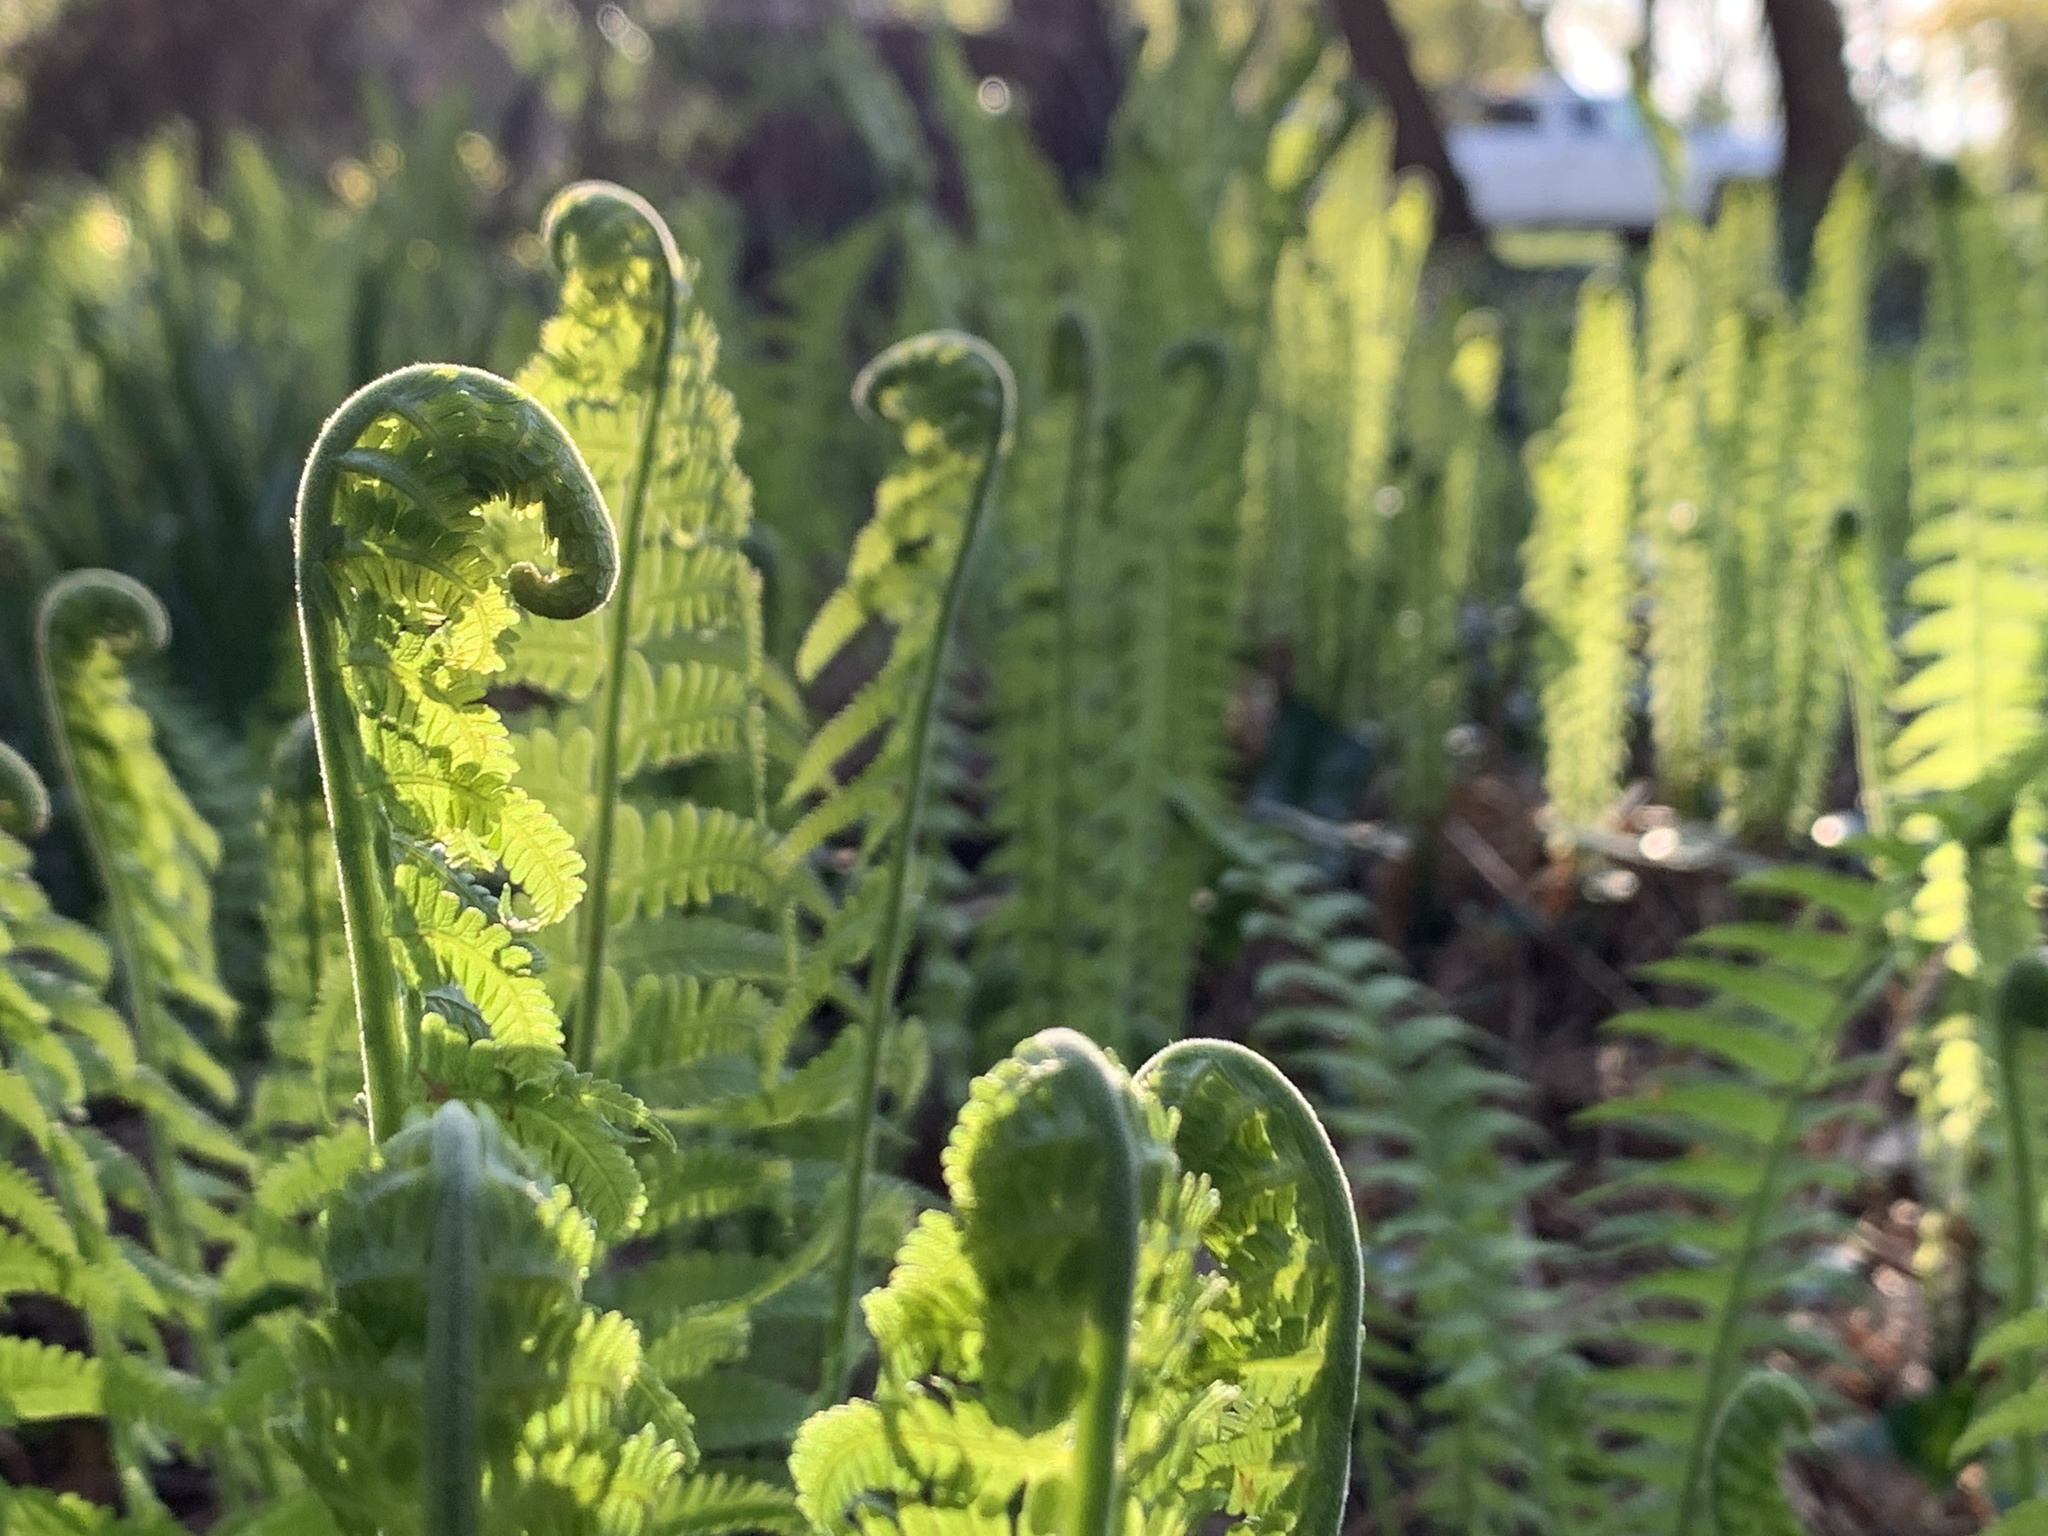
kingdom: Plantae
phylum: Tracheophyta
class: Polypodiopsida
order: Polypodiales
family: Onocleaceae
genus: Matteuccia
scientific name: Matteuccia struthiopteris
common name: Ostrich fern
